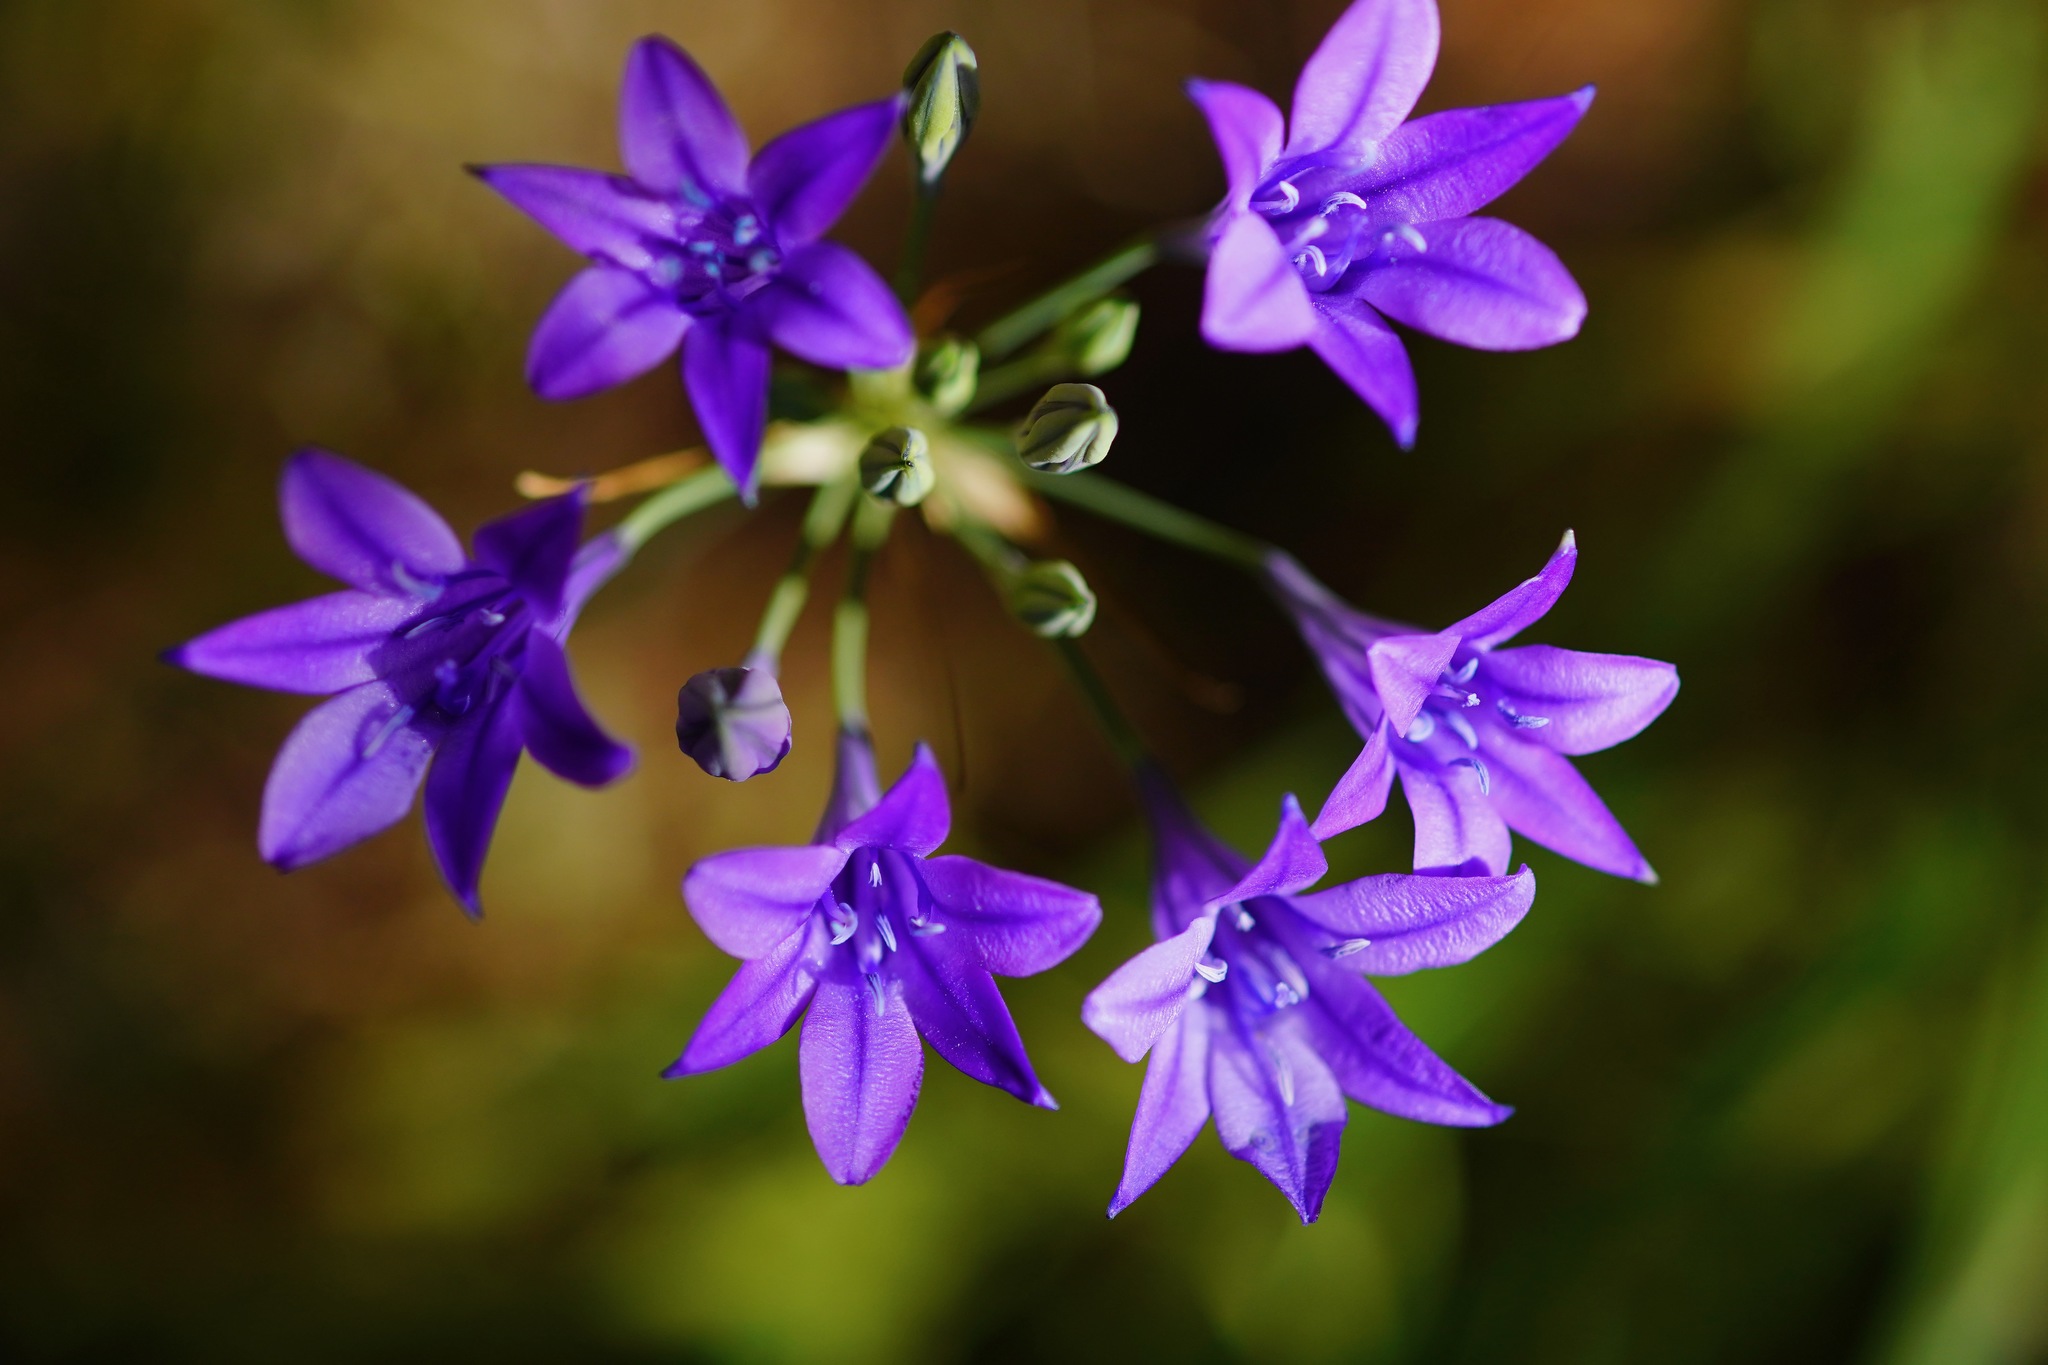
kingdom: Plantae
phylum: Tracheophyta
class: Liliopsida
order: Asparagales
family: Asparagaceae
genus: Triteleia
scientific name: Triteleia laxa
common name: Triplet-lily
